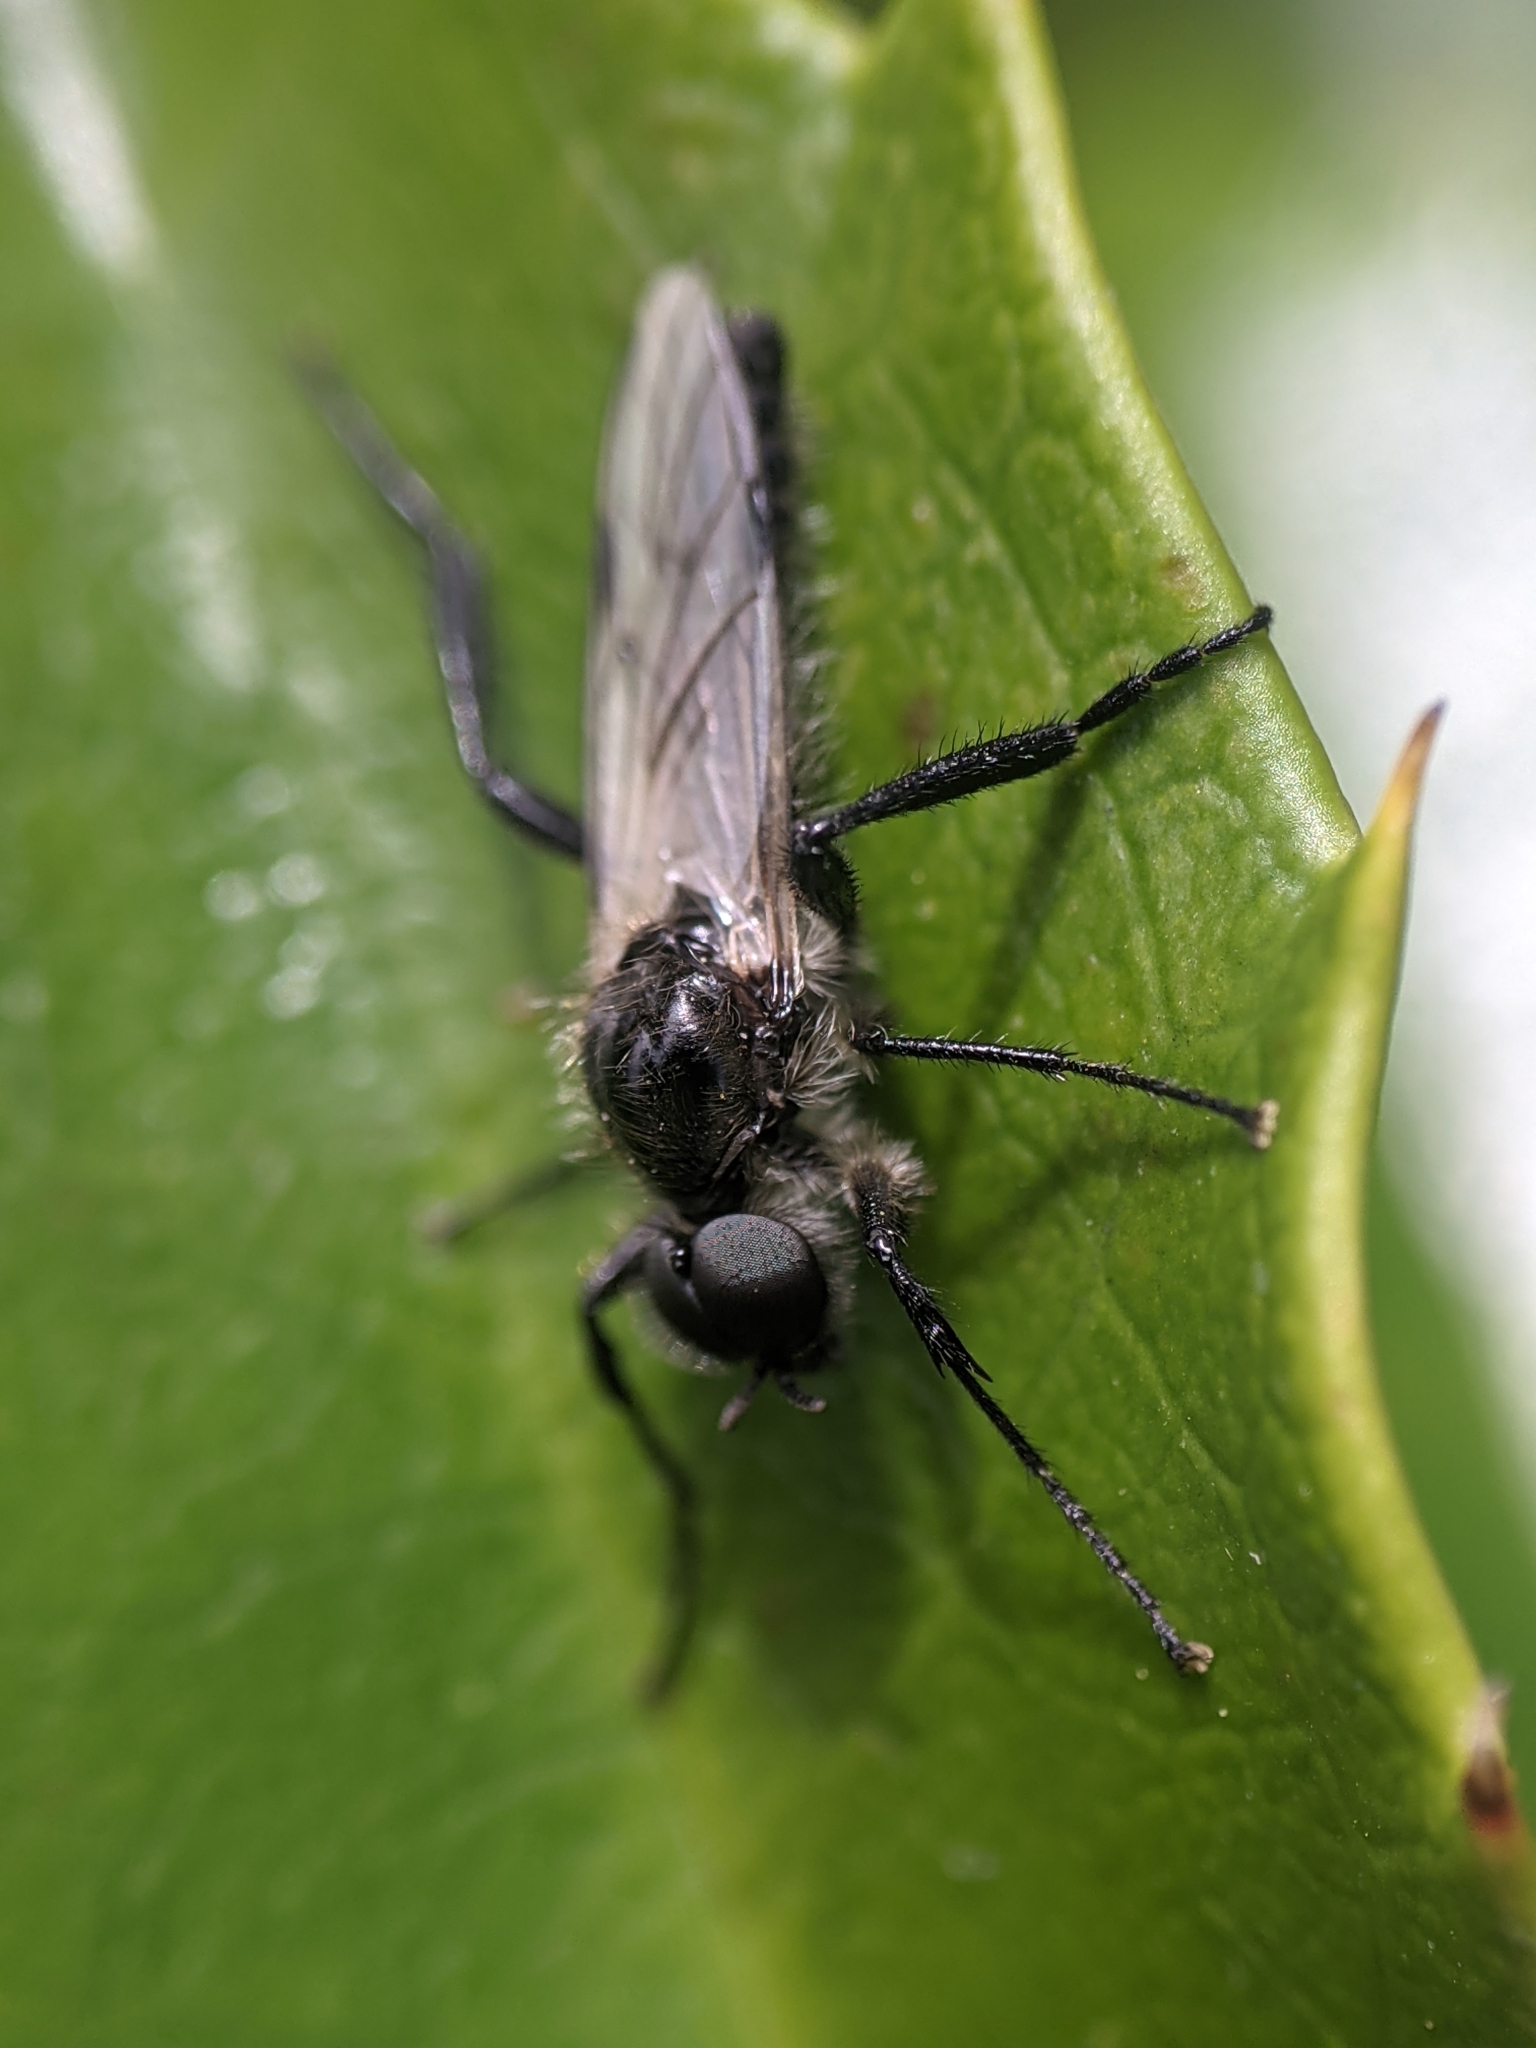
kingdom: Animalia
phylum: Arthropoda
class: Insecta
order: Diptera
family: Bibionidae
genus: Bibio
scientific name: Bibio albipennis
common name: White-winged march fly
